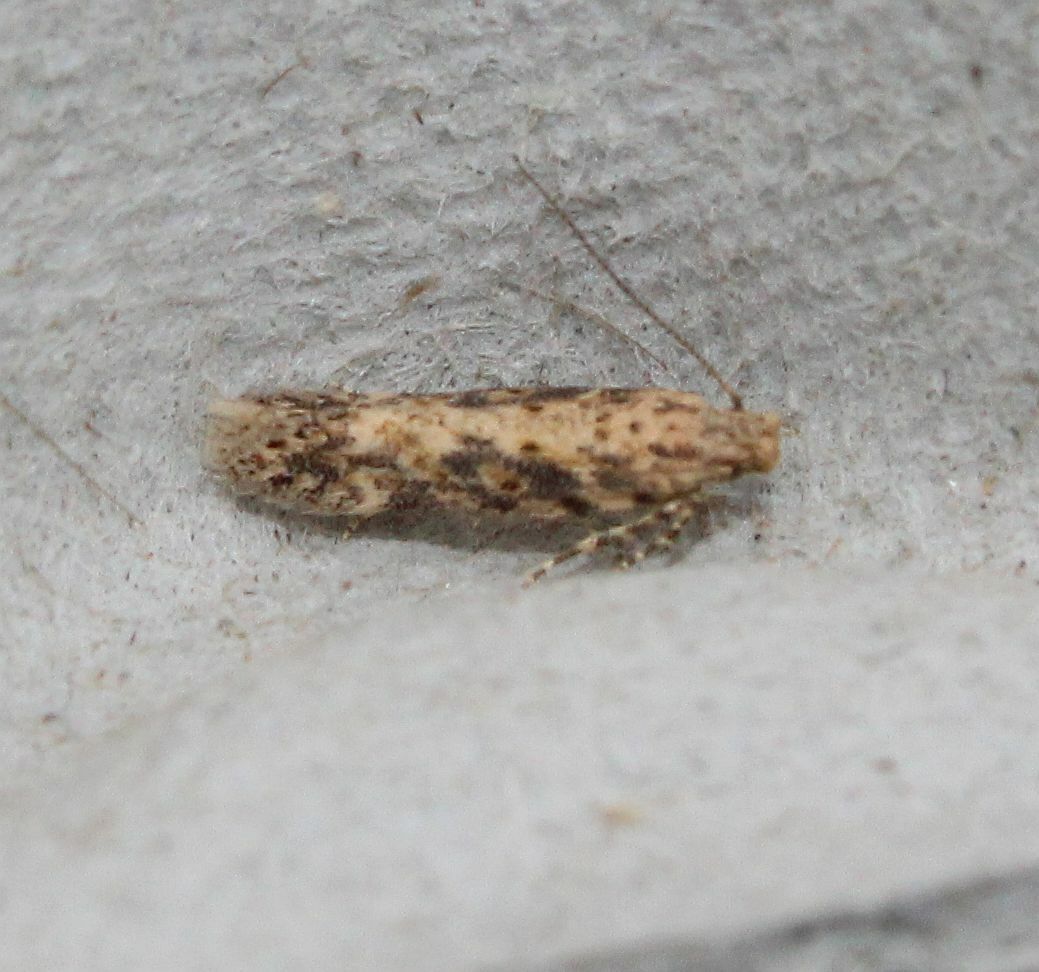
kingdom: Animalia
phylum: Arthropoda
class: Insecta
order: Lepidoptera
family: Gelechiidae
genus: Scrobipalpa
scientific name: Scrobipalpa ocellatella
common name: Beet moth
